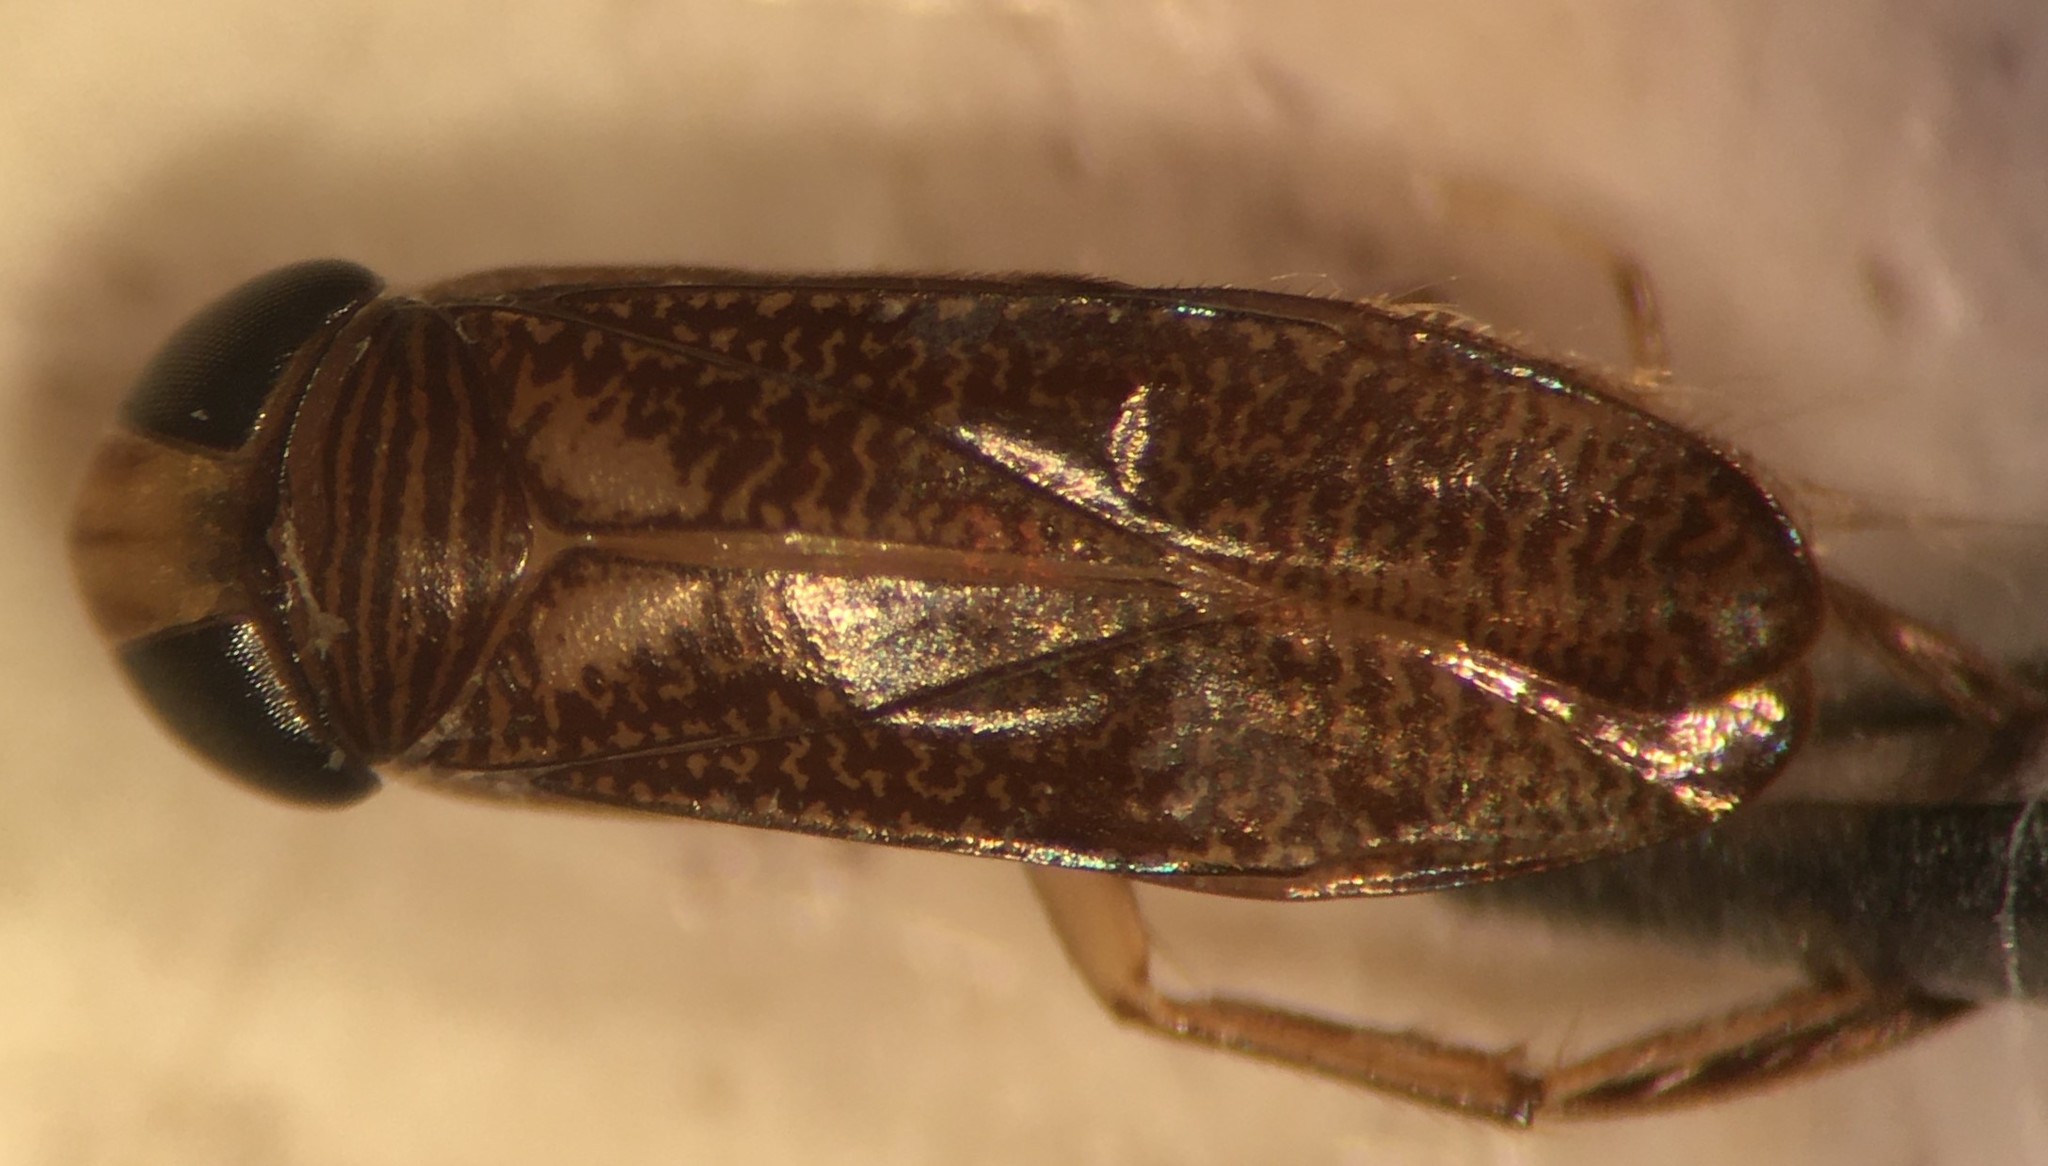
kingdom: Animalia
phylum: Arthropoda
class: Insecta
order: Hemiptera
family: Corixidae
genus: Trichocorixa
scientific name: Trichocorixa minima
